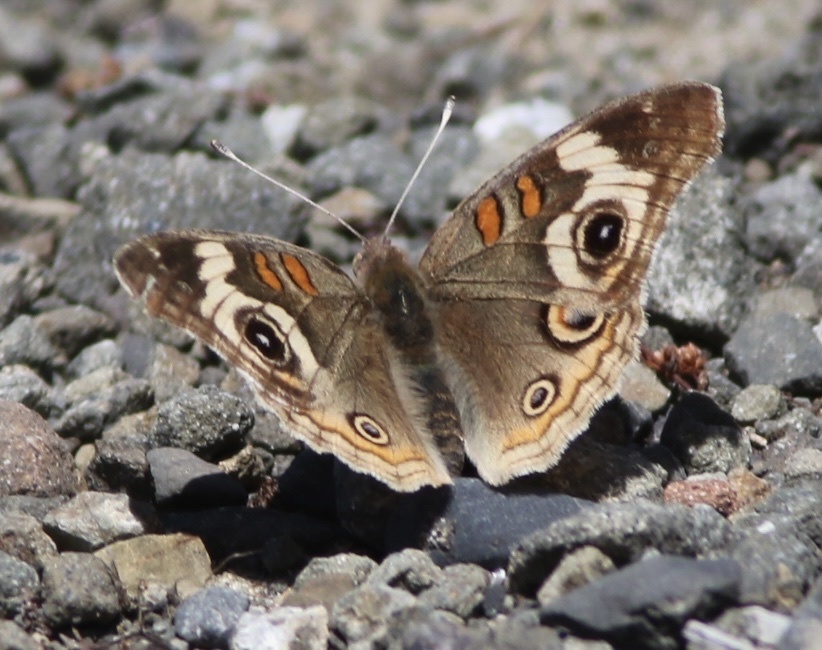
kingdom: Animalia
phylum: Arthropoda
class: Insecta
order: Lepidoptera
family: Nymphalidae
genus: Junonia
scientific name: Junonia grisea
